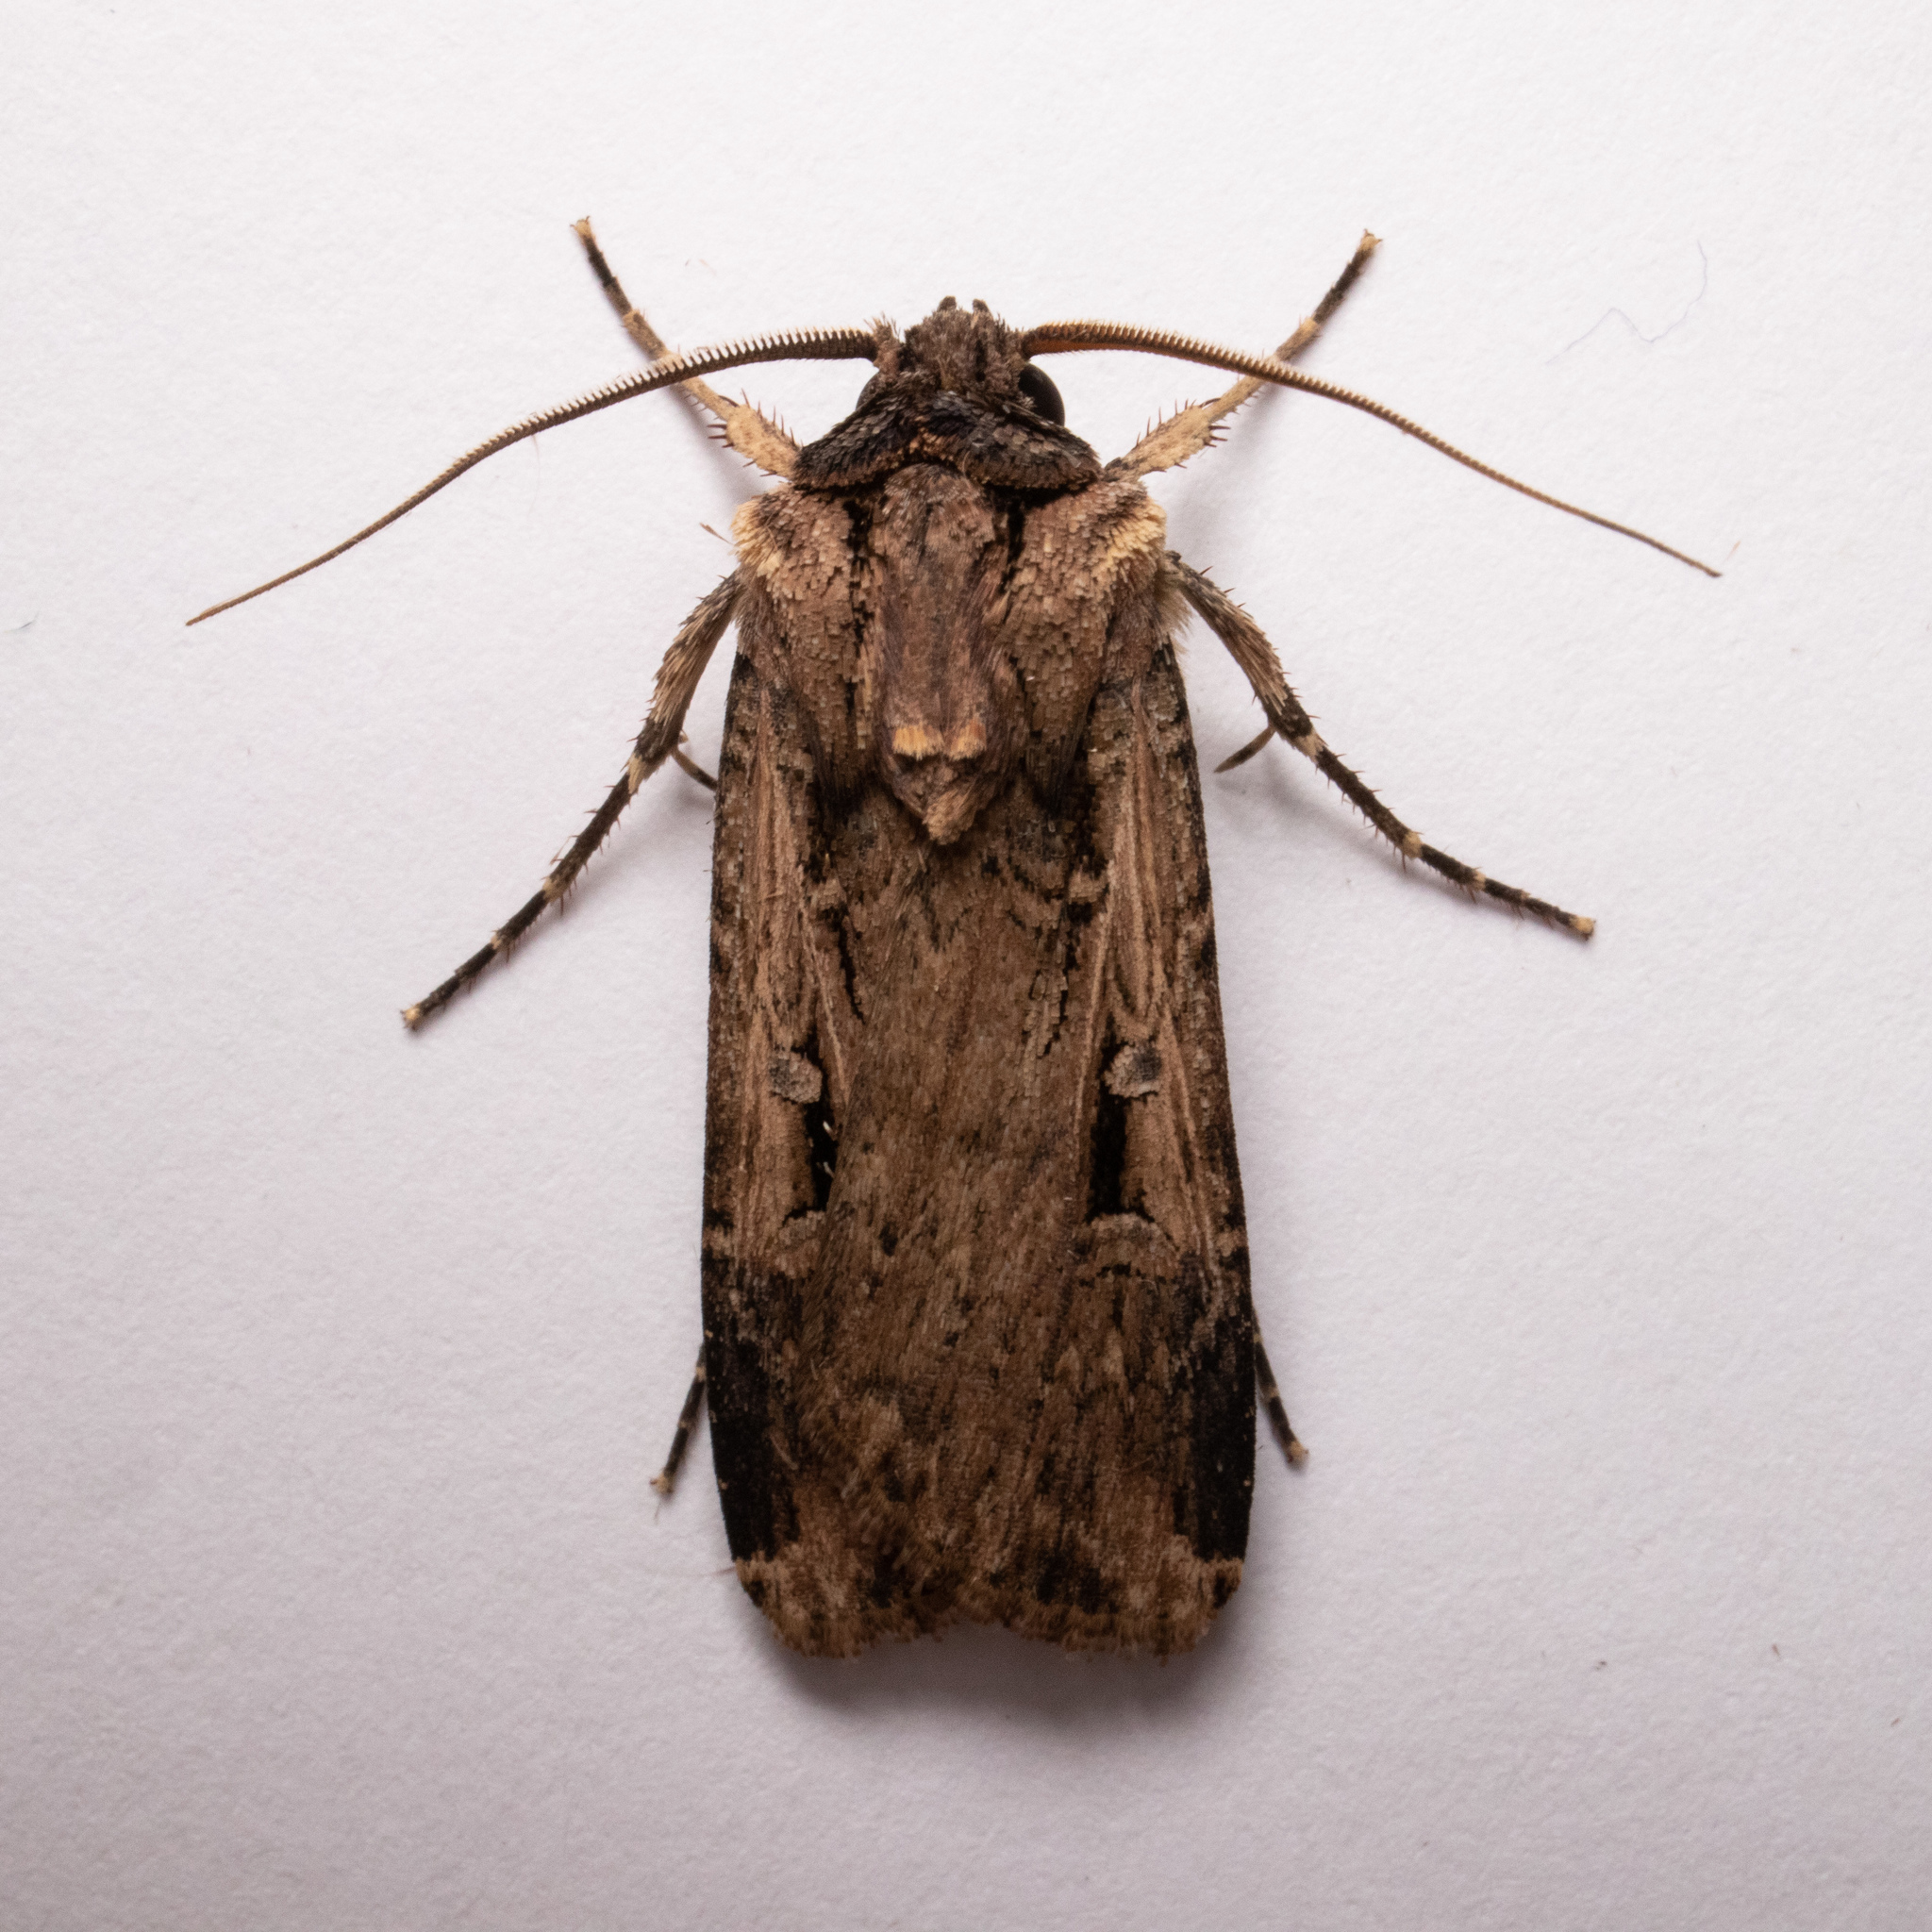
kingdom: Animalia
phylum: Arthropoda
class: Insecta
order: Lepidoptera
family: Noctuidae
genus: Feltia
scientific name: Feltia subterranea
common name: Granulate cutworm
